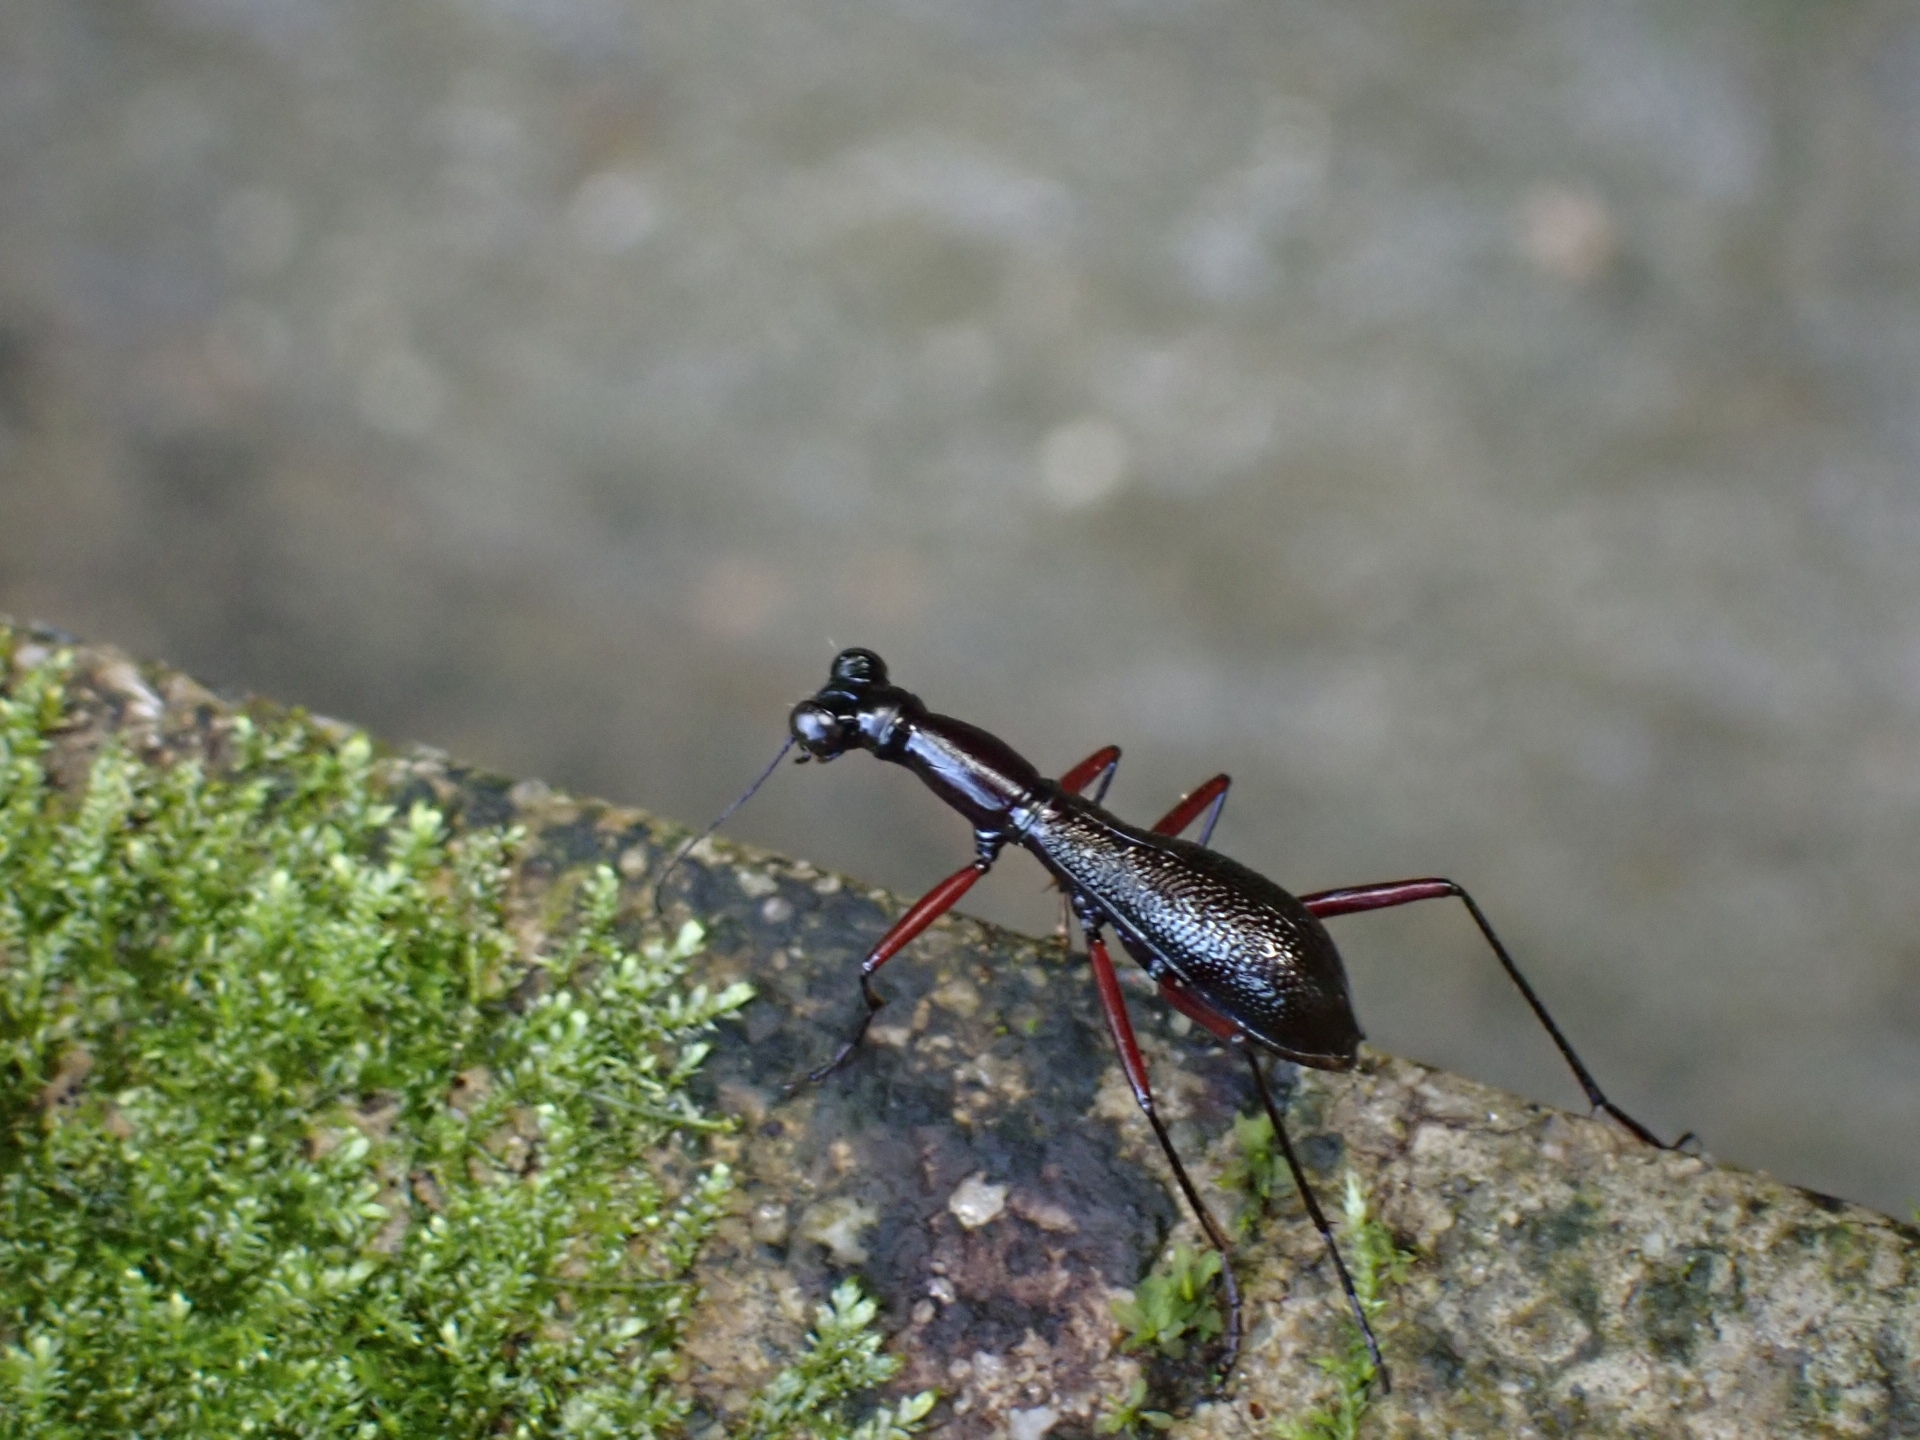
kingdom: Animalia
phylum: Arthropoda
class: Insecta
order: Coleoptera
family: Carabidae
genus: Tricondyla
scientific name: Tricondyla pulchripes
